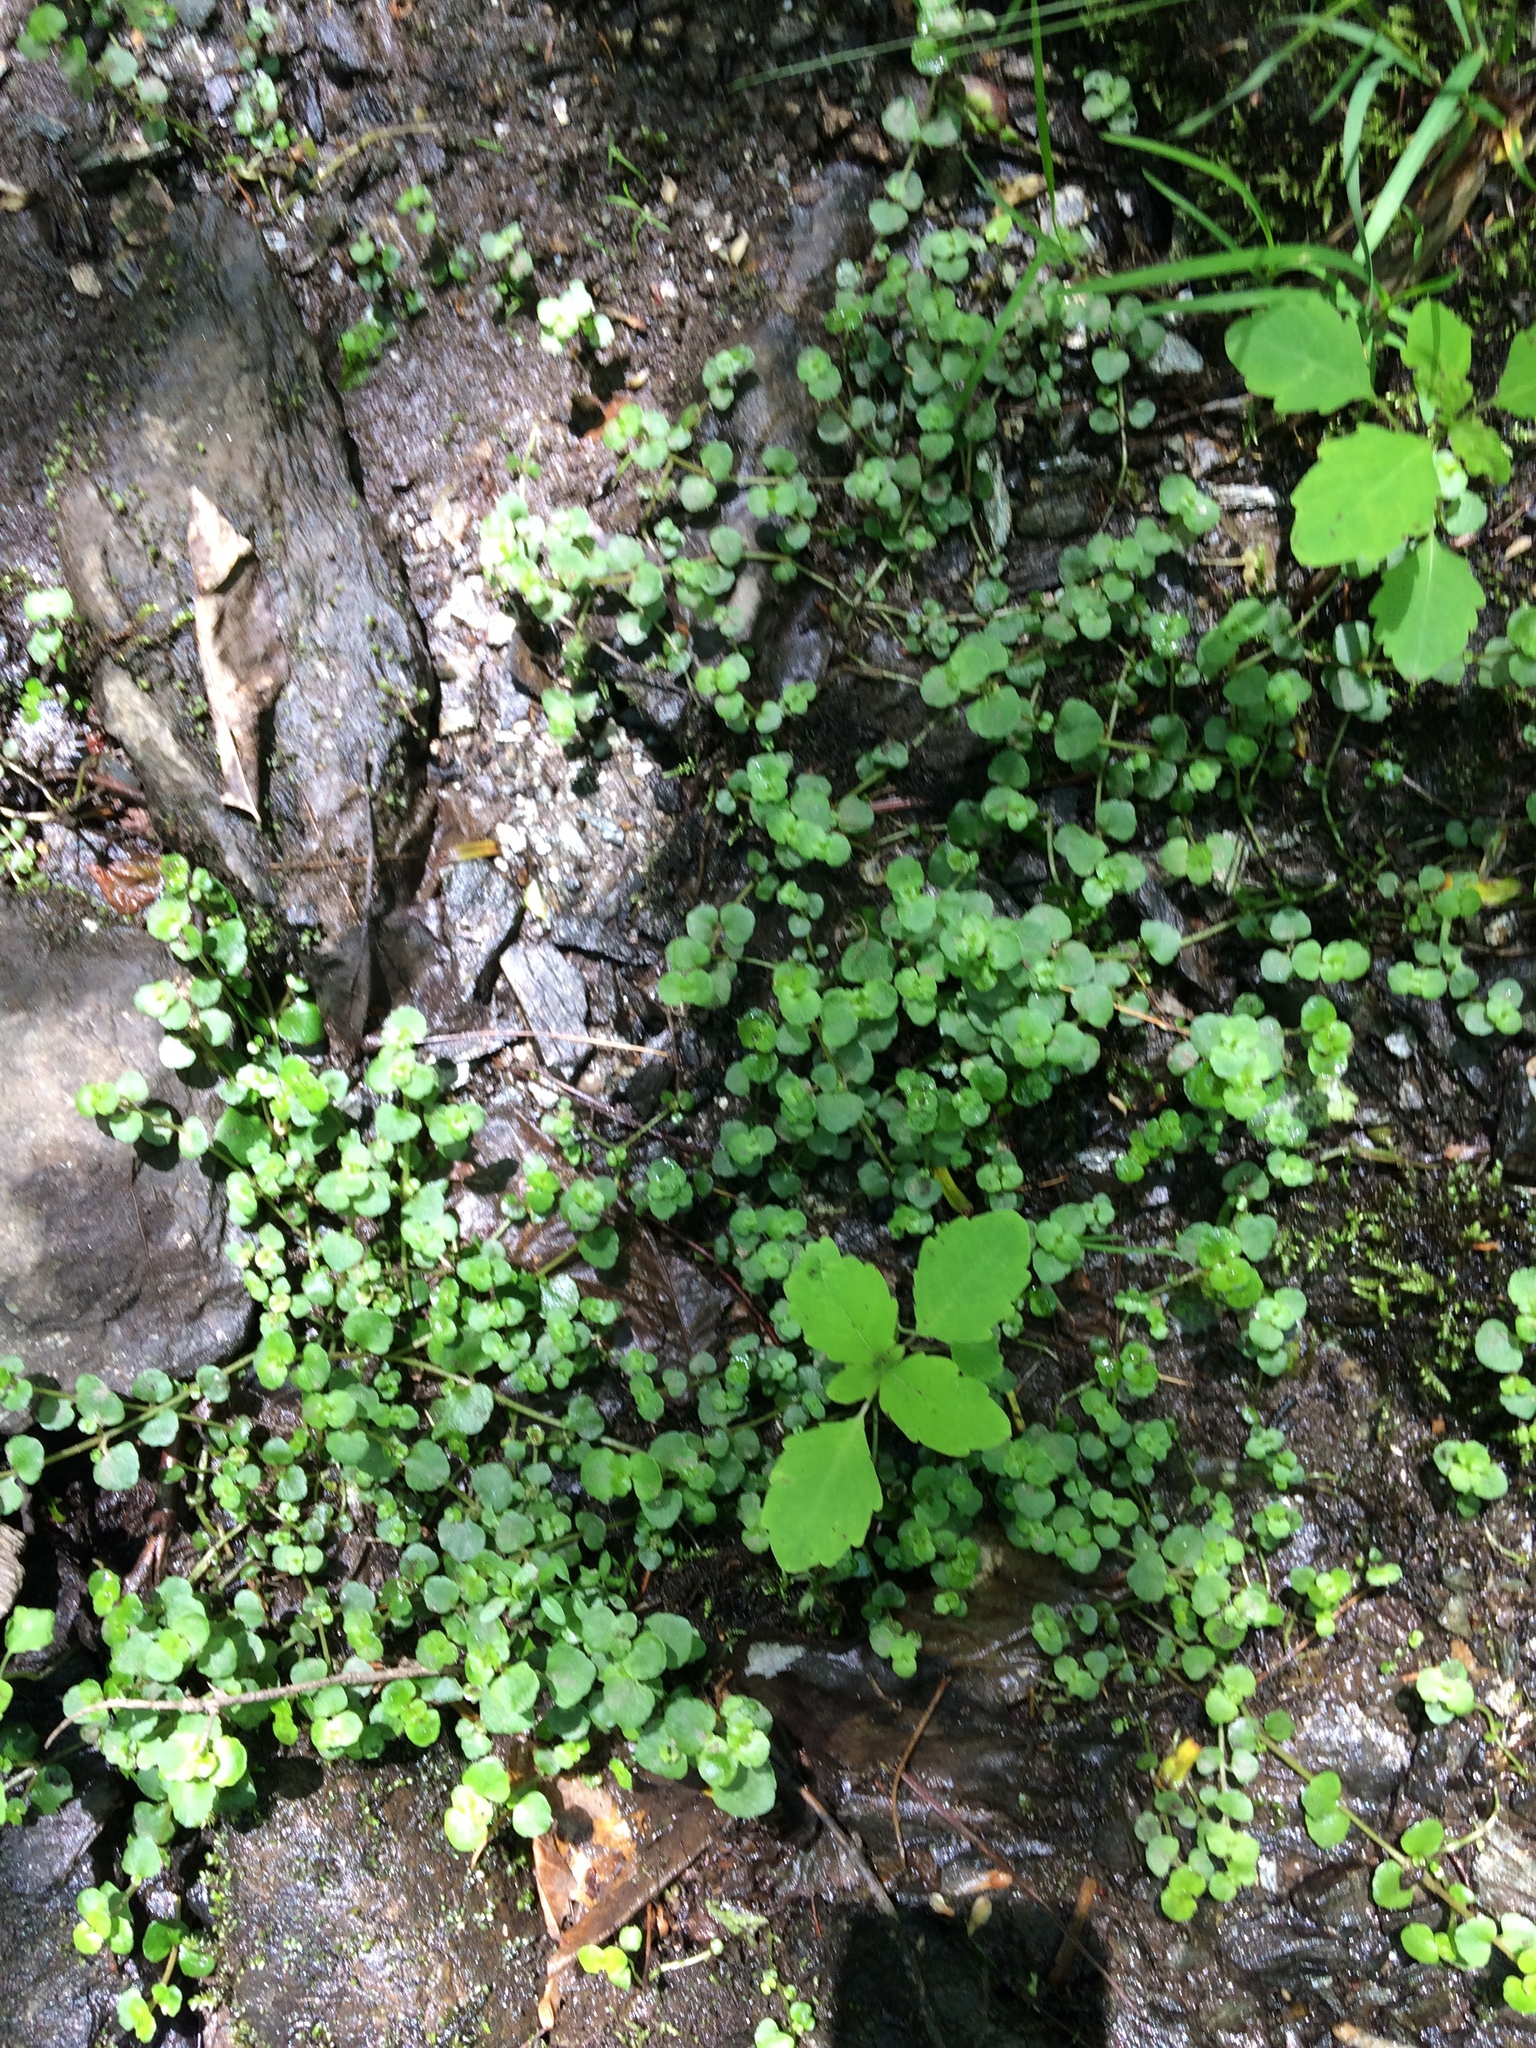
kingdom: Plantae
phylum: Tracheophyta
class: Magnoliopsida
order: Saxifragales
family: Saxifragaceae
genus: Chrysosplenium
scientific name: Chrysosplenium americanum
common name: American golden-saxifrage
